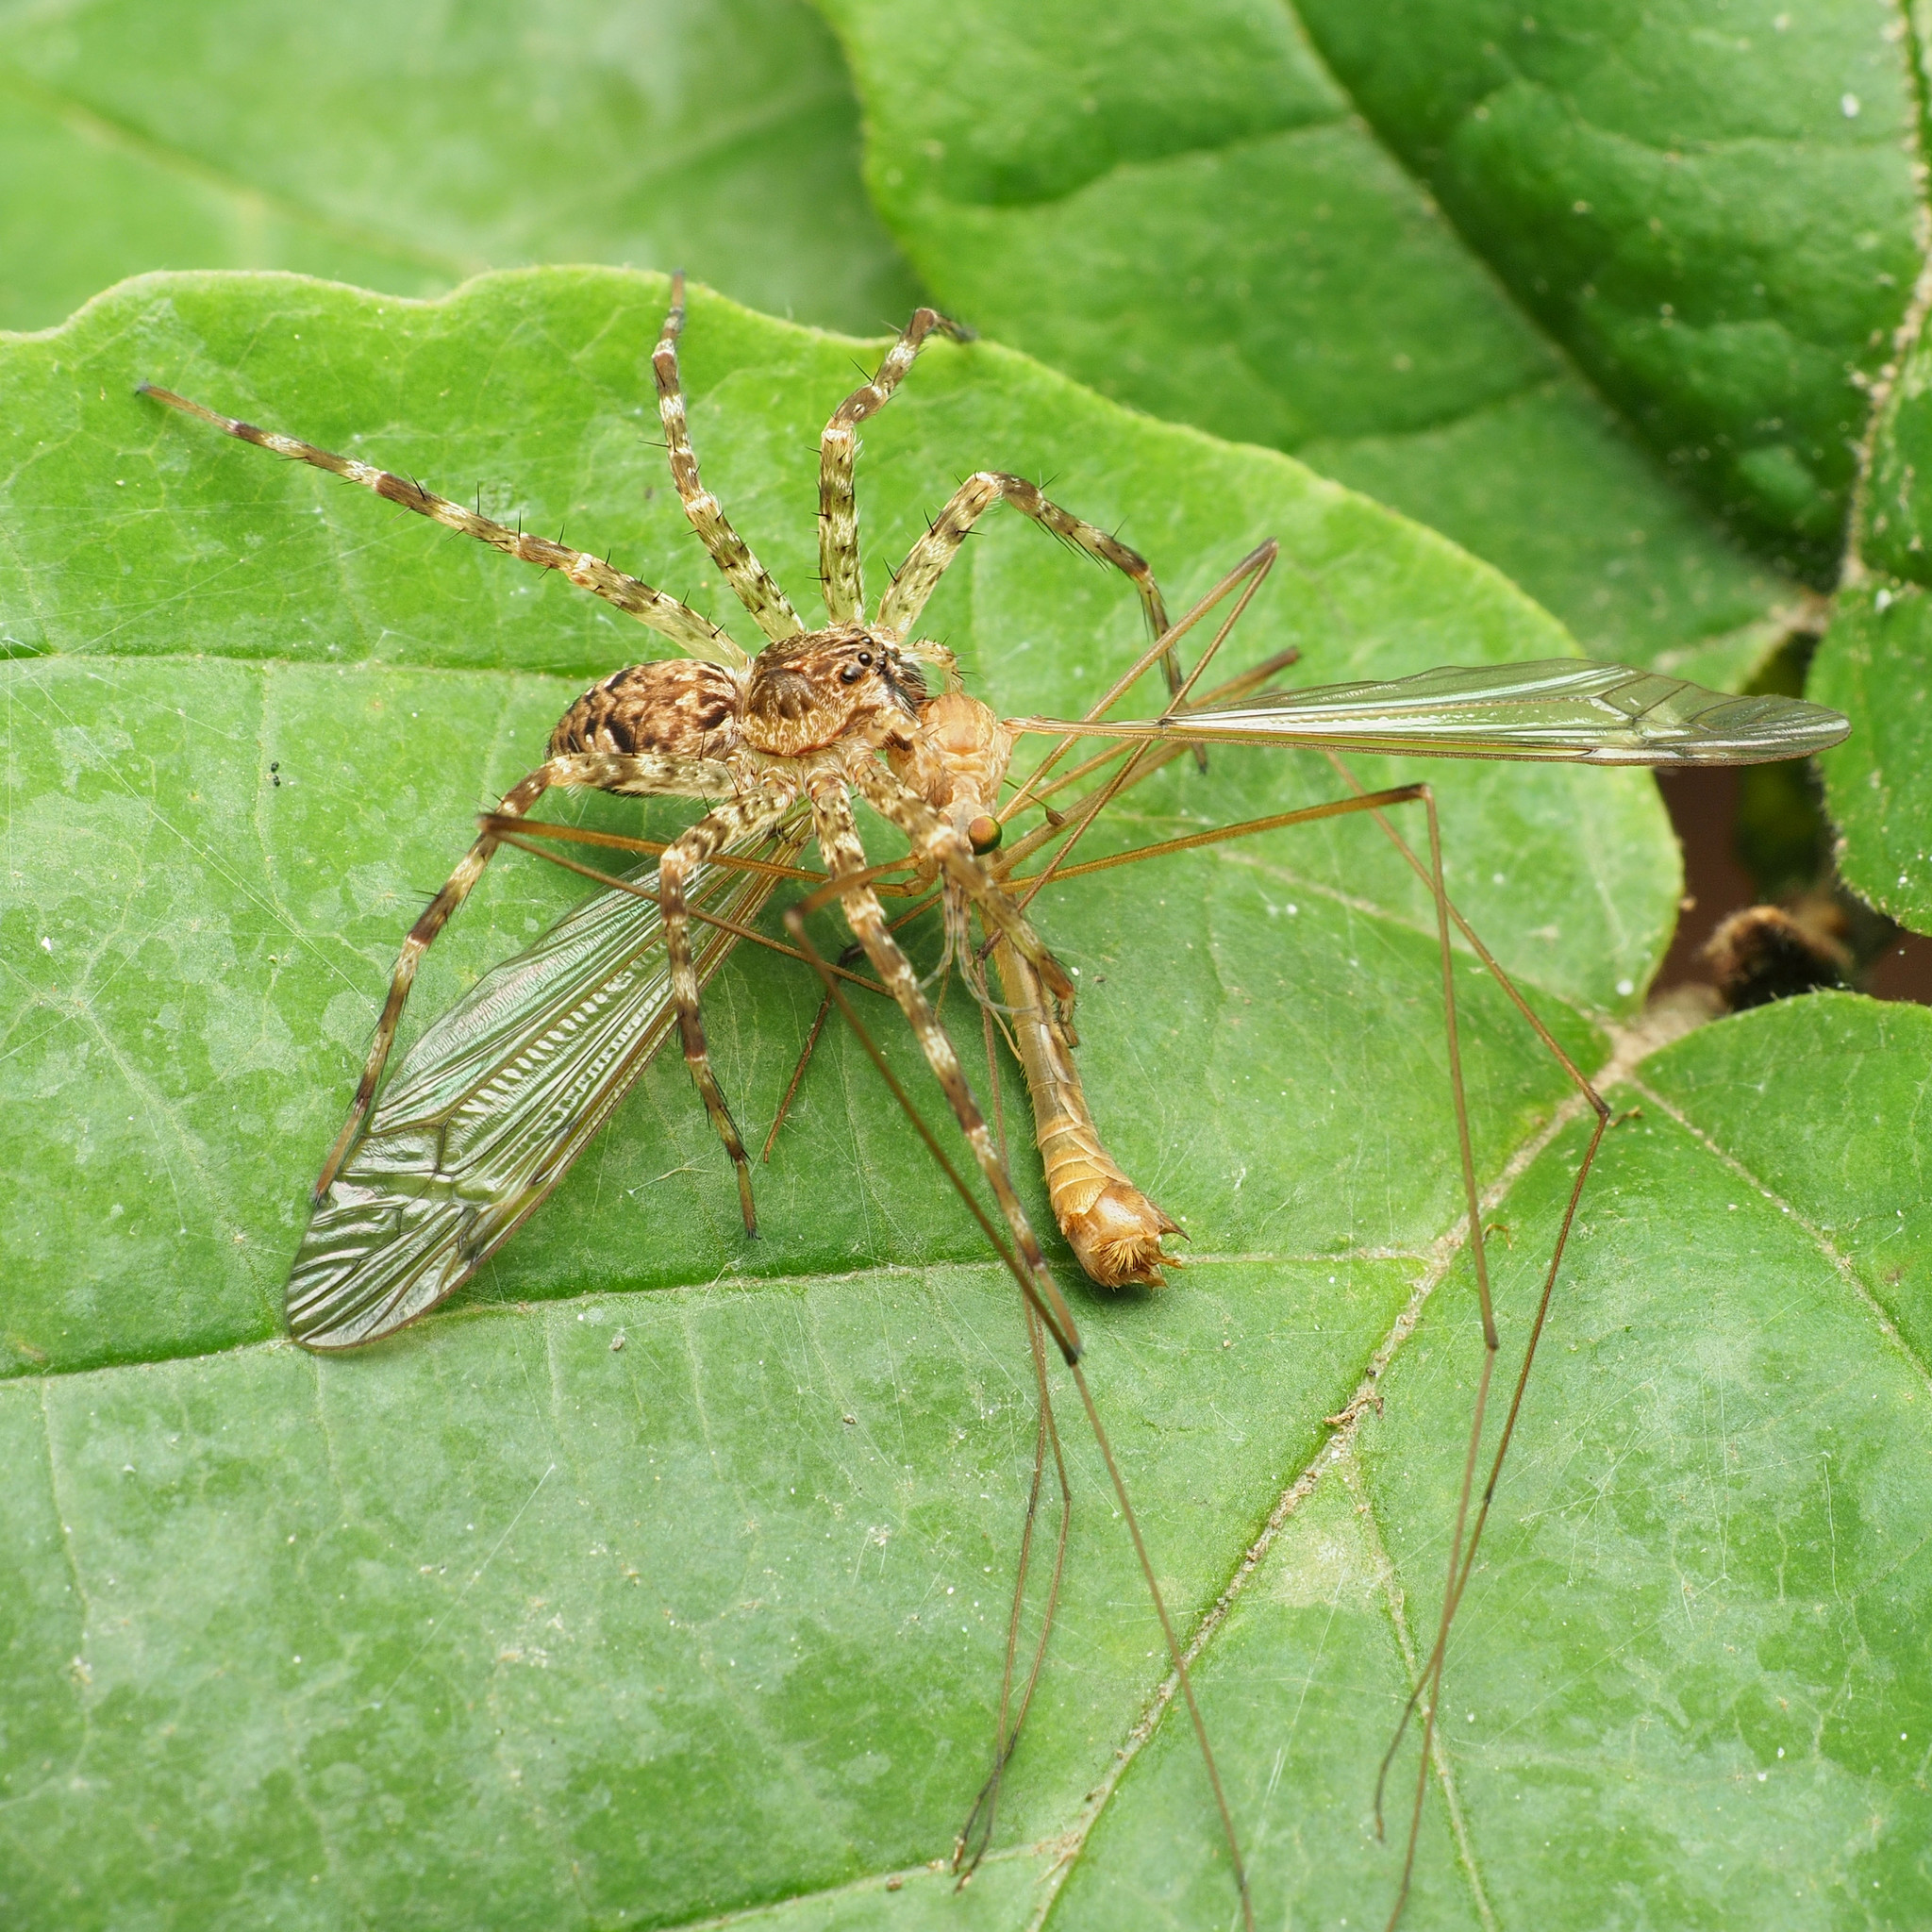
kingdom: Animalia
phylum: Arthropoda
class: Arachnida
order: Araneae
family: Pisauridae
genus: Dolomedes
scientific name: Dolomedes tenebrosus
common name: Dark fishing spider
